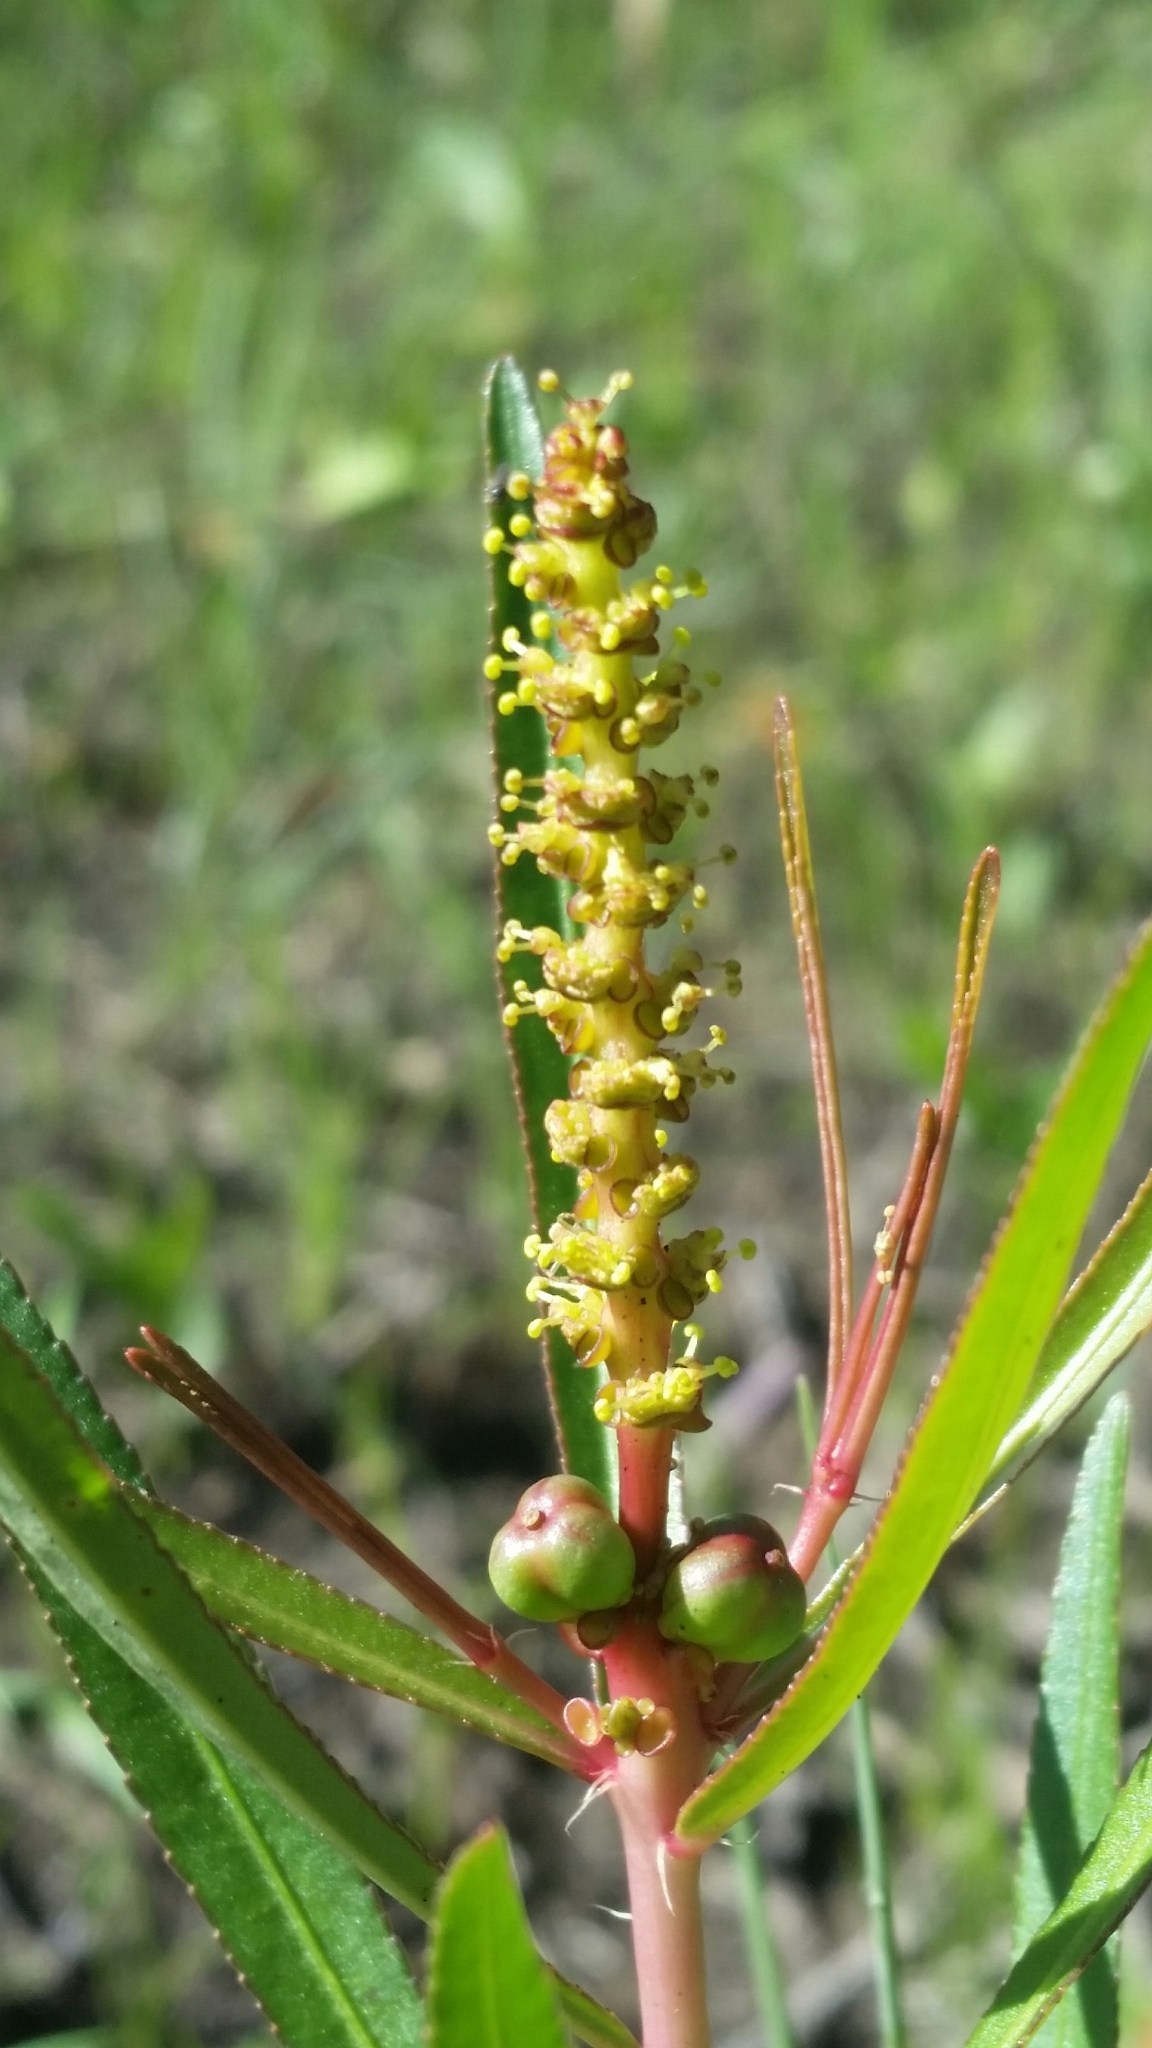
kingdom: Plantae
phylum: Tracheophyta
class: Magnoliopsida
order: Malpighiales
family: Euphorbiaceae
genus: Stillingia
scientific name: Stillingia sylvatica
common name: Queen's-delight
